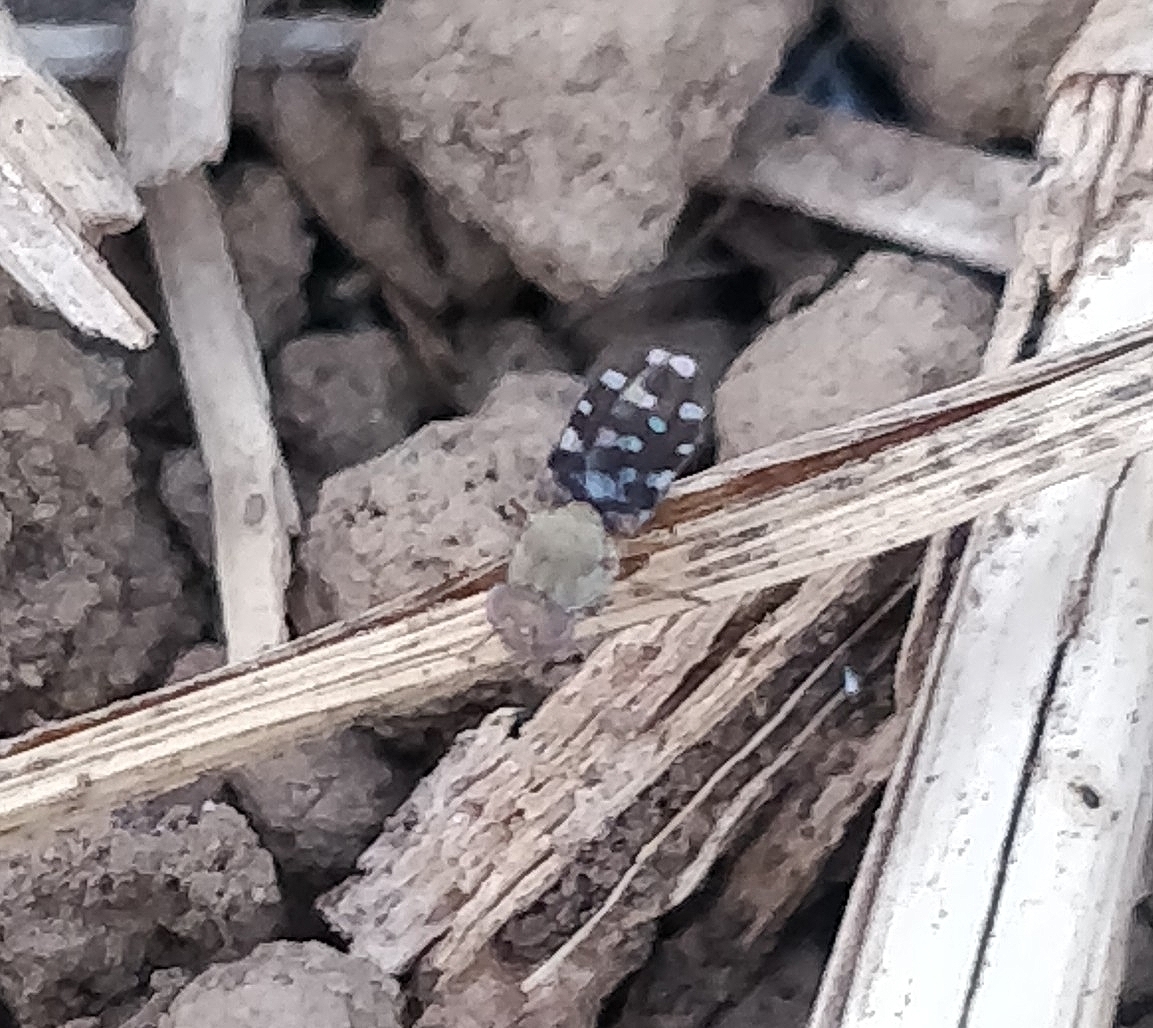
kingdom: Animalia
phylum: Arthropoda
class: Insecta
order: Diptera
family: Ephydridae
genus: Actocetor
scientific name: Actocetor indicus
